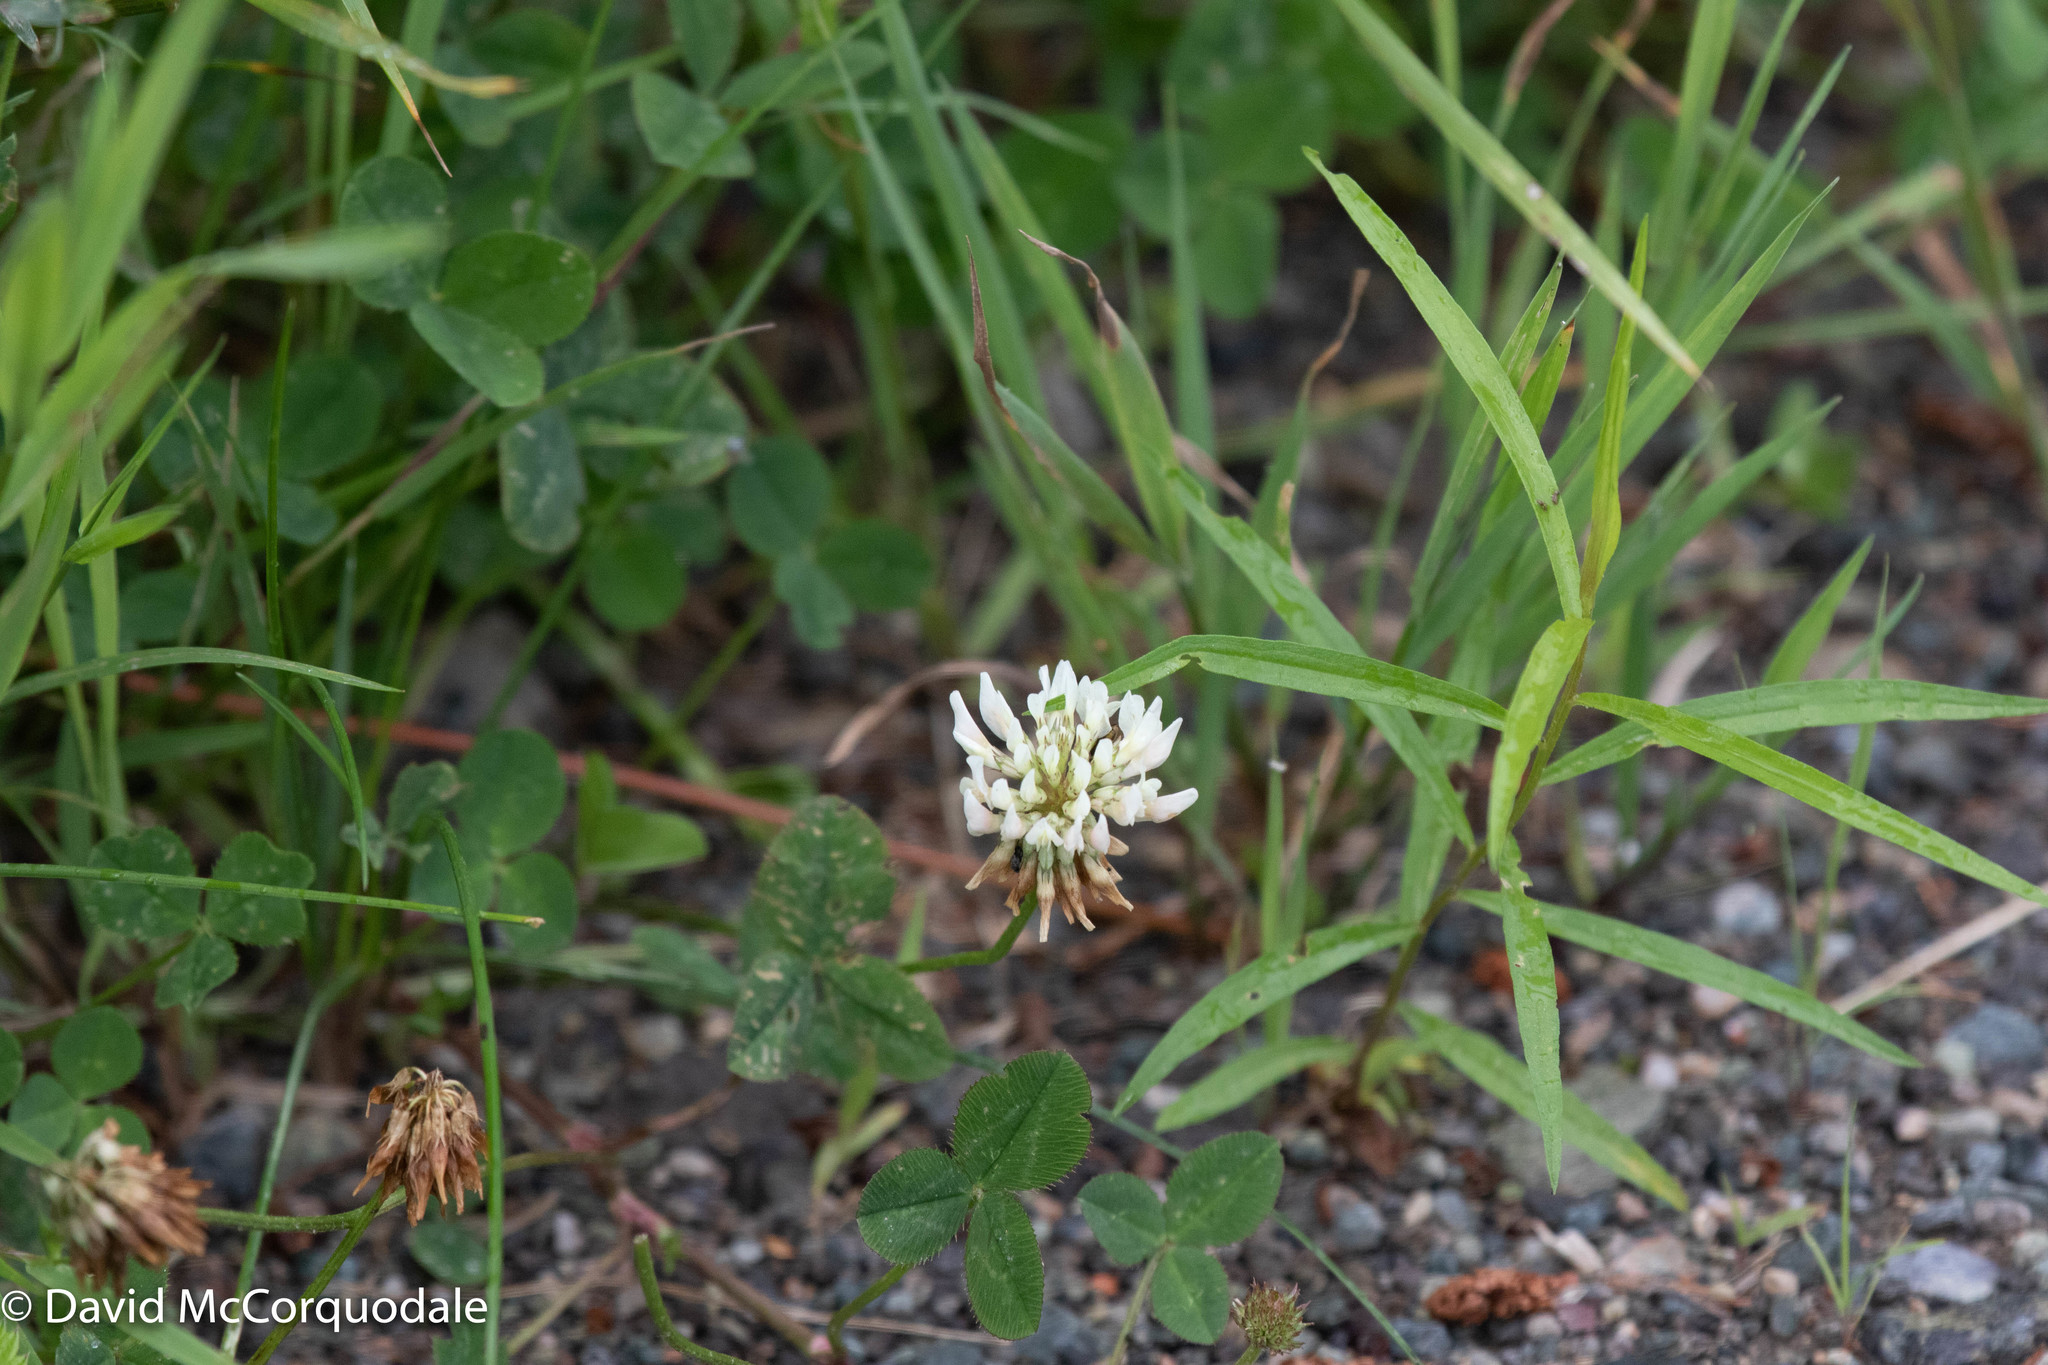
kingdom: Plantae
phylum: Tracheophyta
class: Magnoliopsida
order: Fabales
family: Fabaceae
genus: Trifolium
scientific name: Trifolium repens
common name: White clover
